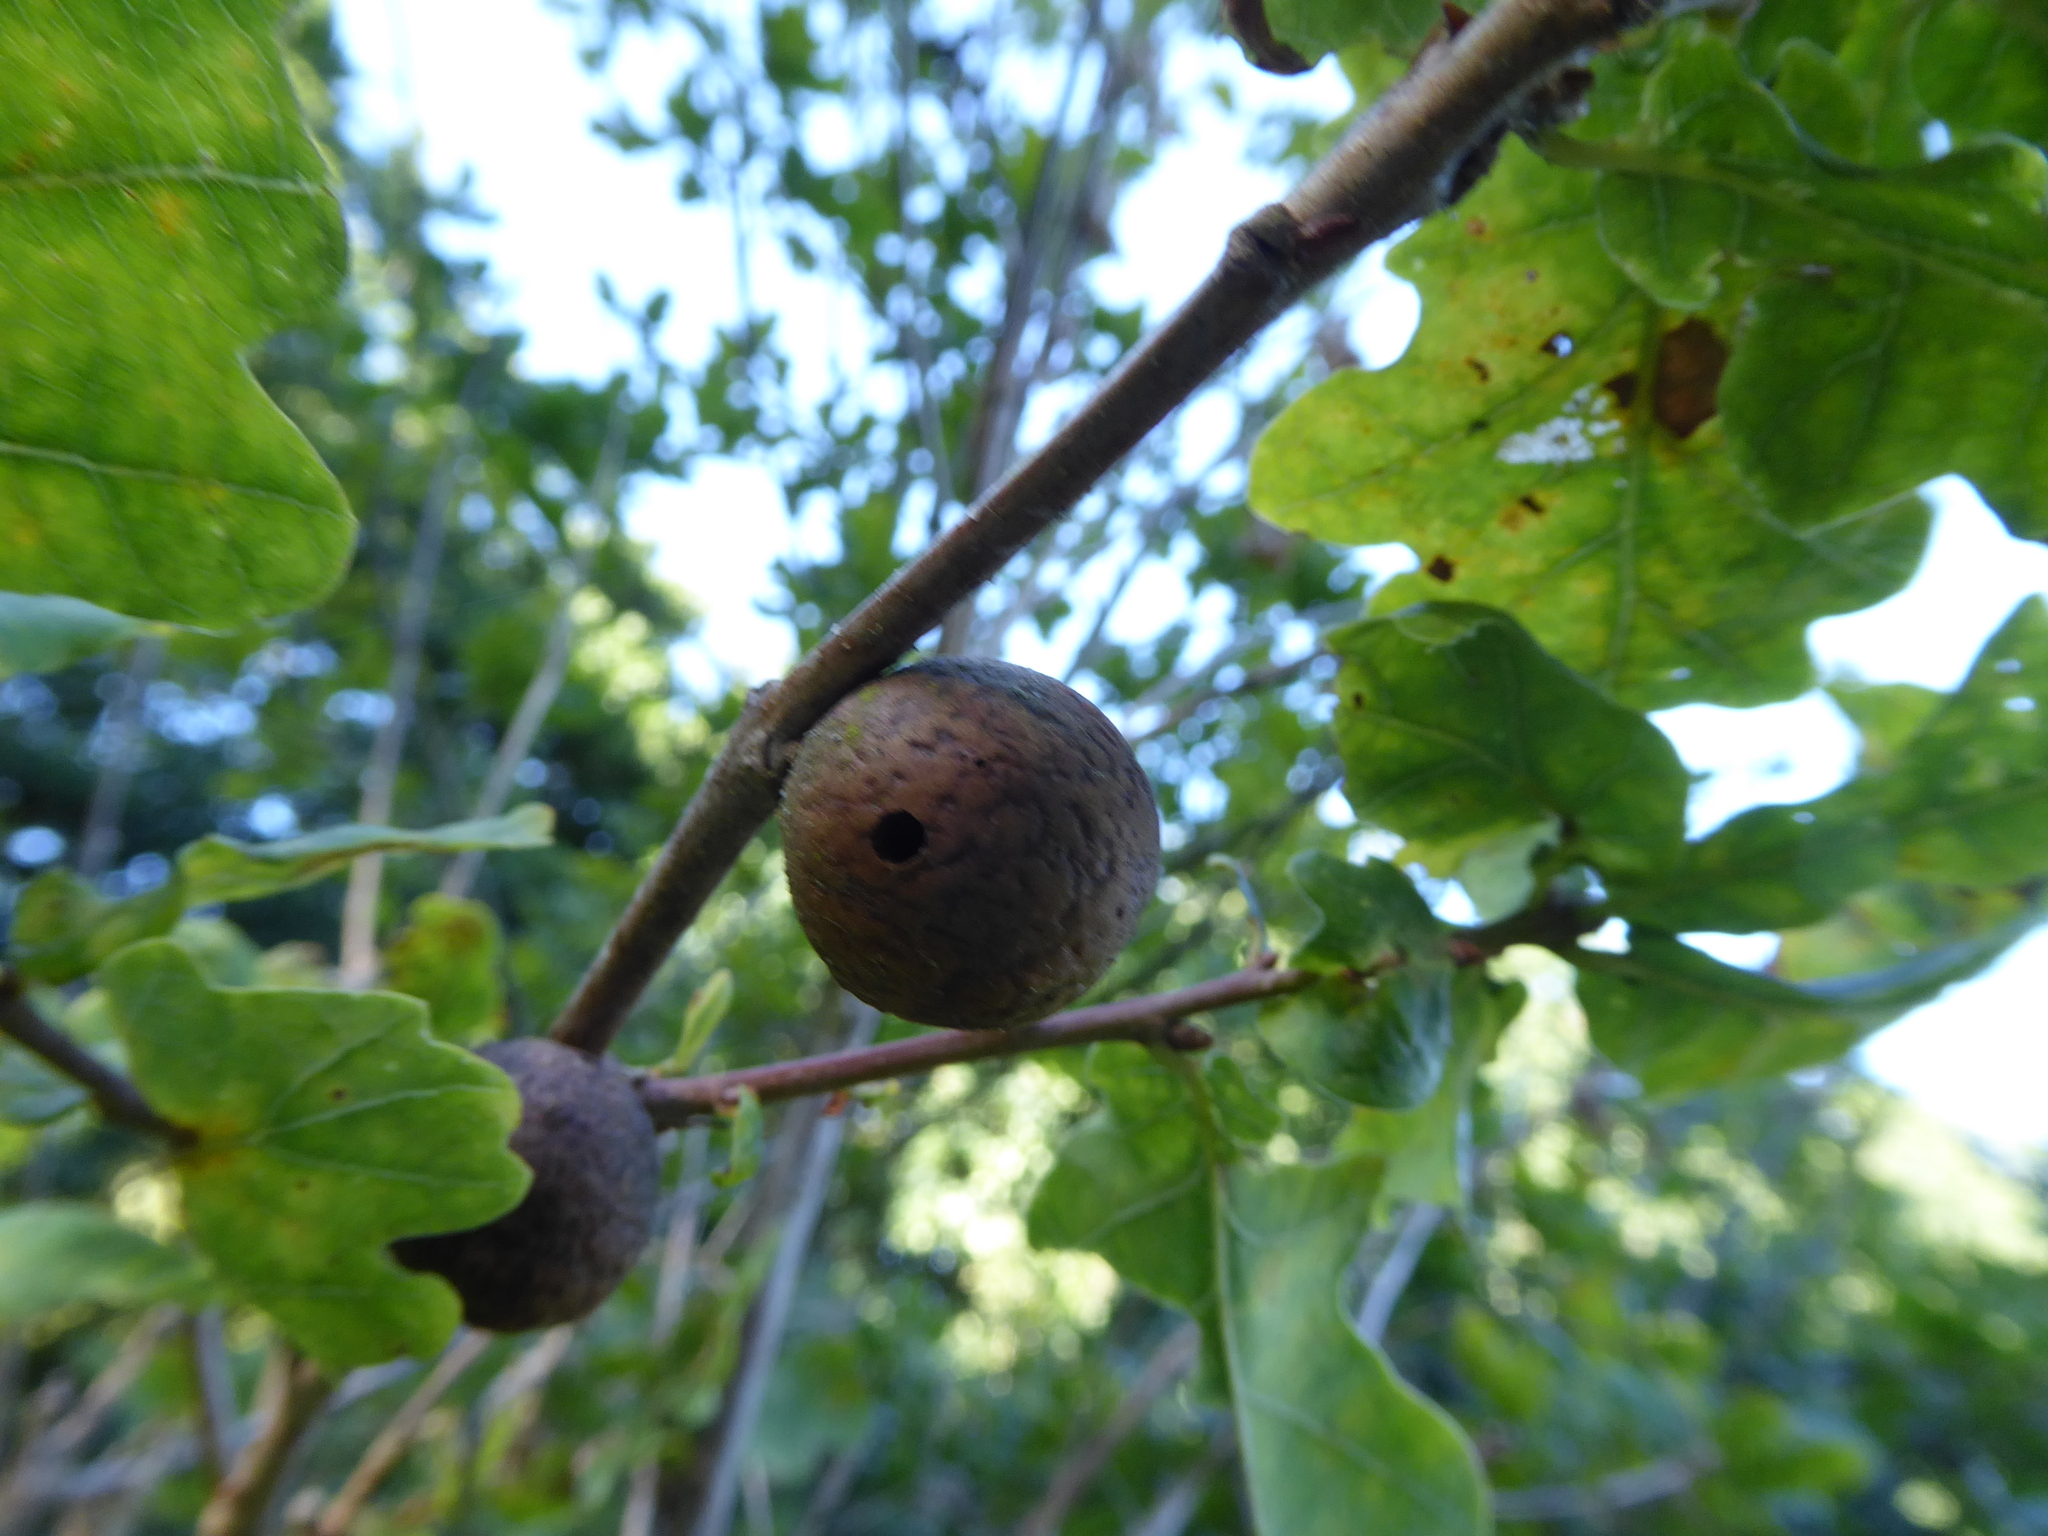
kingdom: Animalia
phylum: Arthropoda
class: Insecta
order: Hymenoptera
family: Cynipidae
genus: Andricus
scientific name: Andricus kollari
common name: Marble gall
